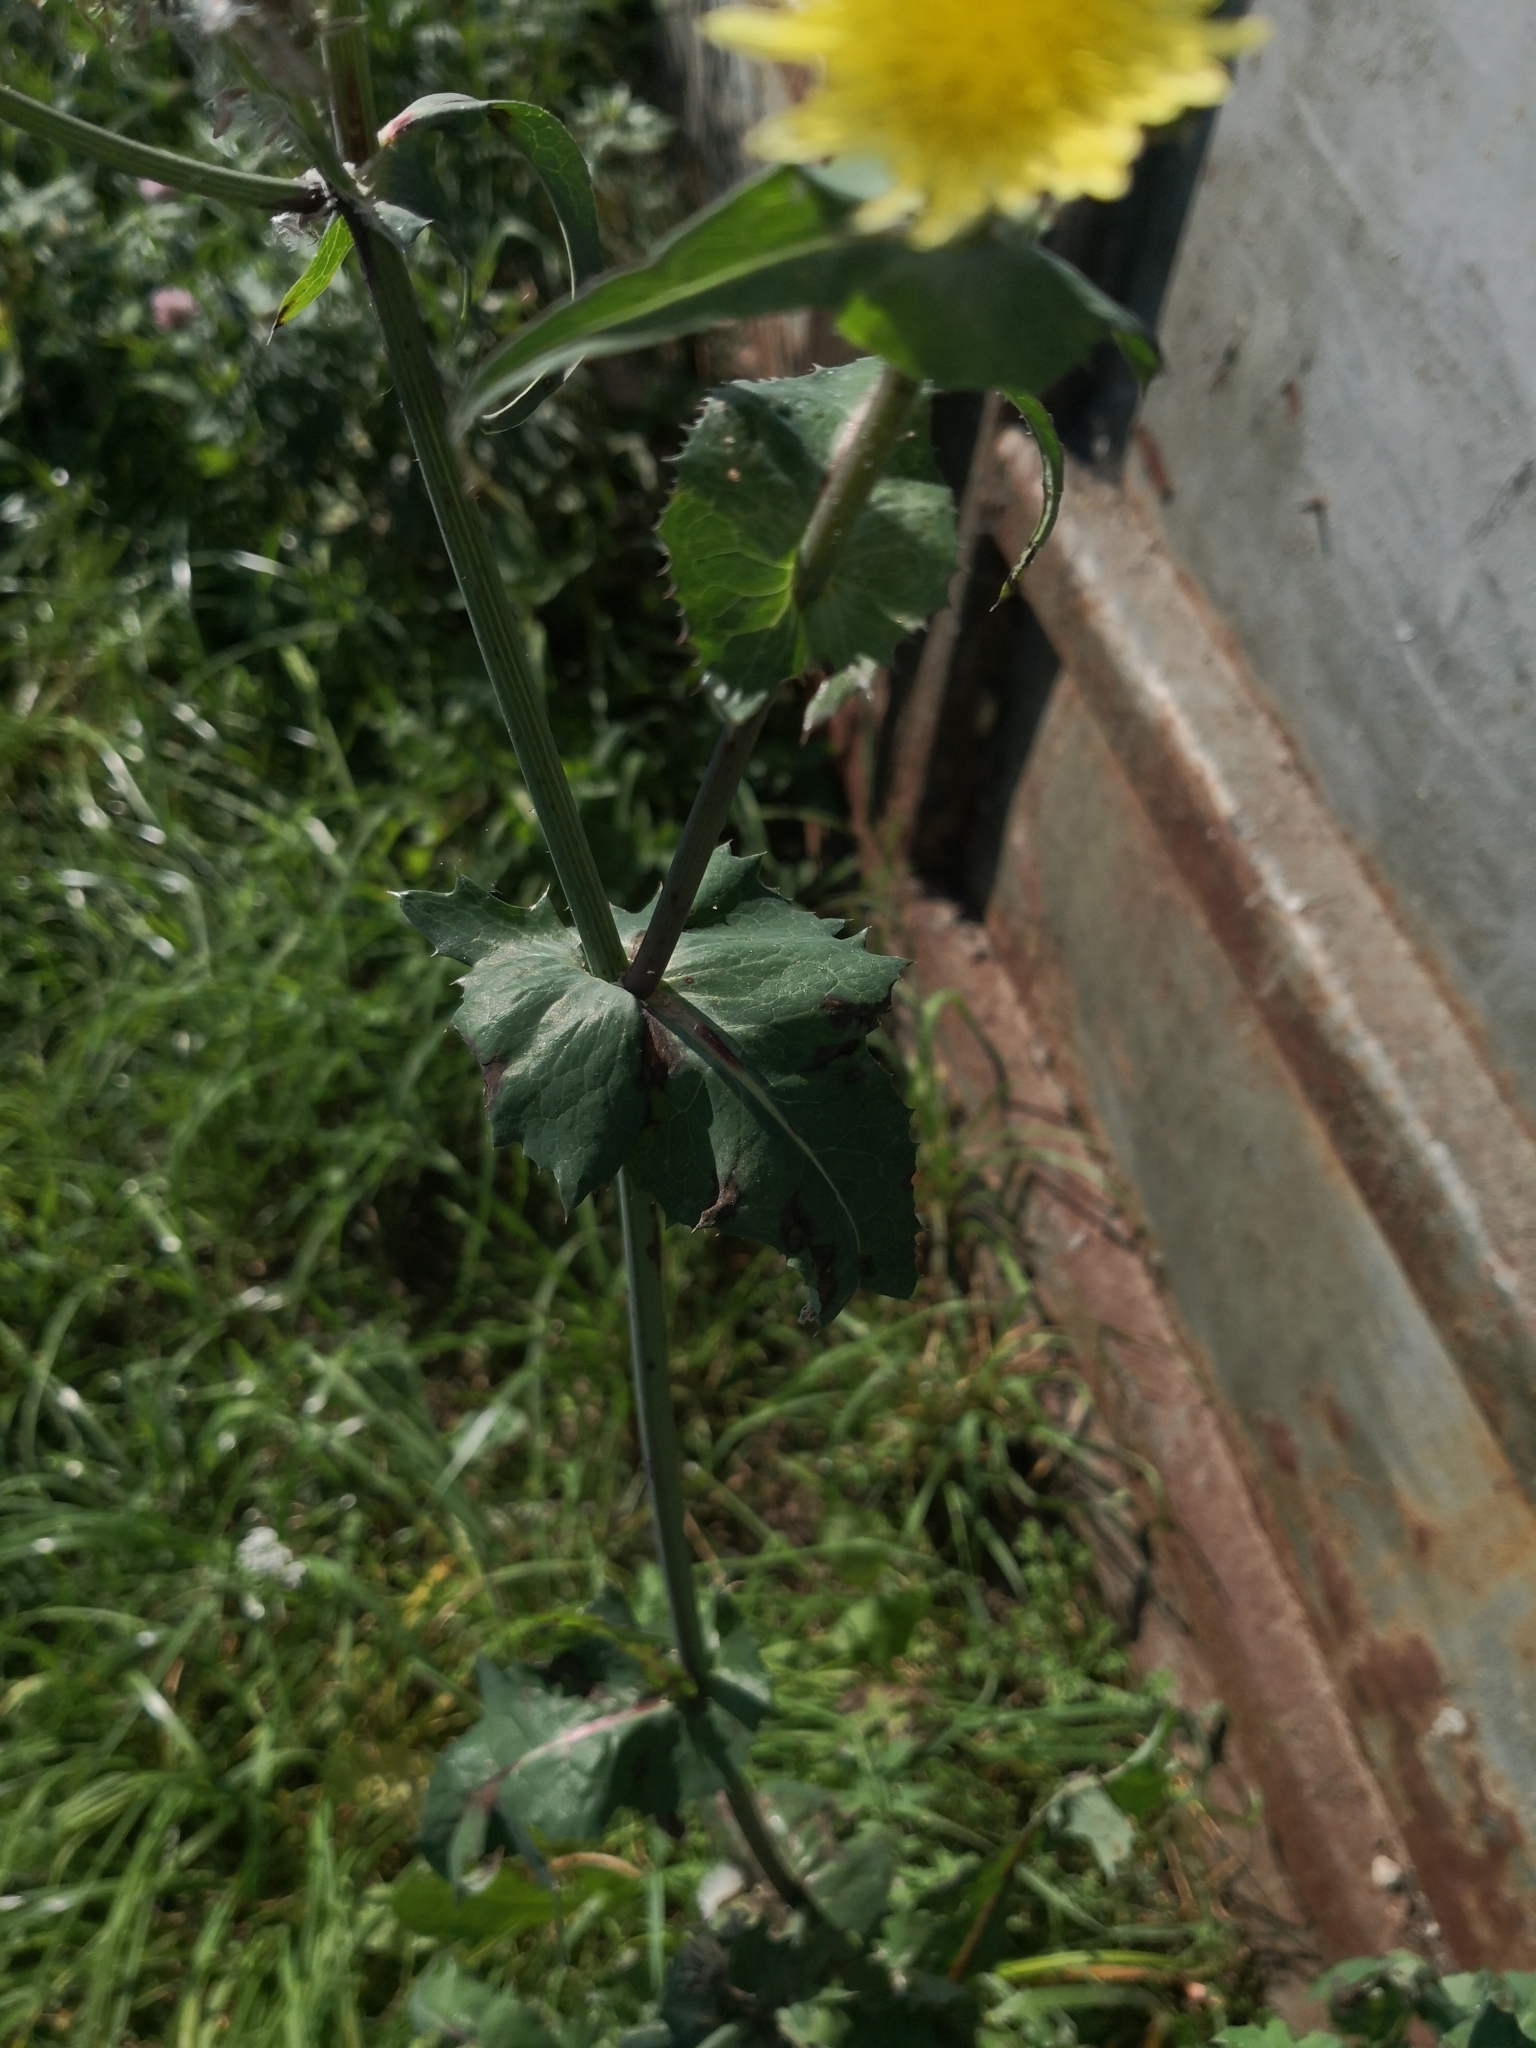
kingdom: Plantae
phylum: Tracheophyta
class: Magnoliopsida
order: Asterales
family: Asteraceae
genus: Sonchus
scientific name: Sonchus oleraceus
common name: Common sowthistle
